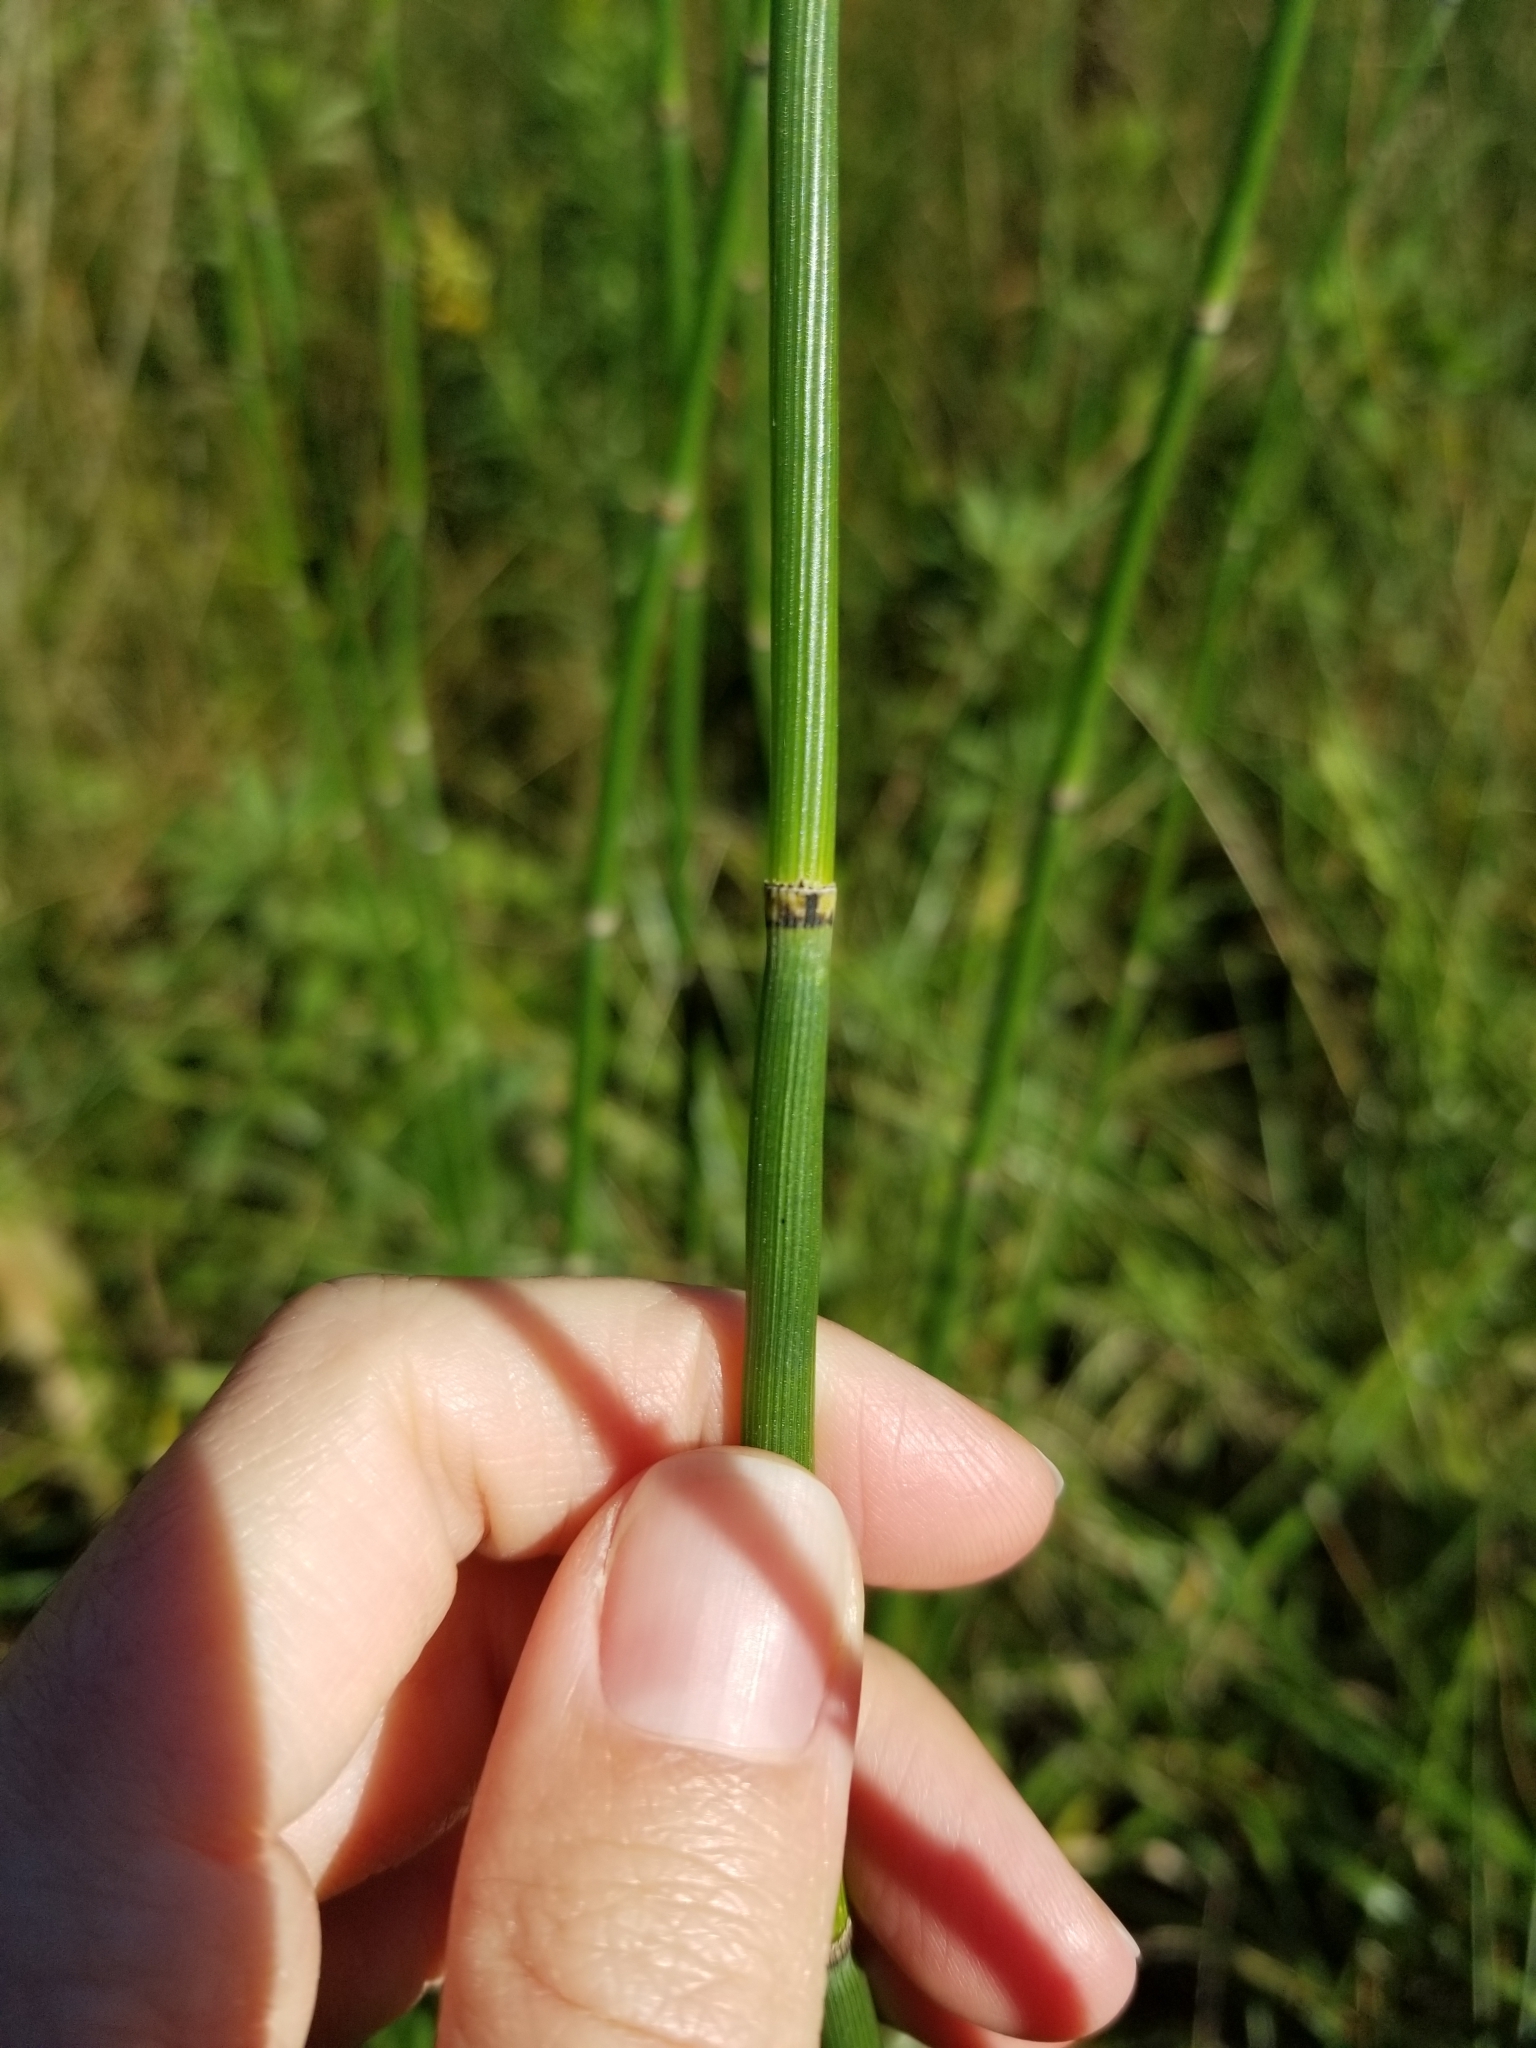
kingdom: Plantae
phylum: Tracheophyta
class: Polypodiopsida
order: Equisetales
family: Equisetaceae
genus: Equisetum
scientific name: Equisetum praealtum
